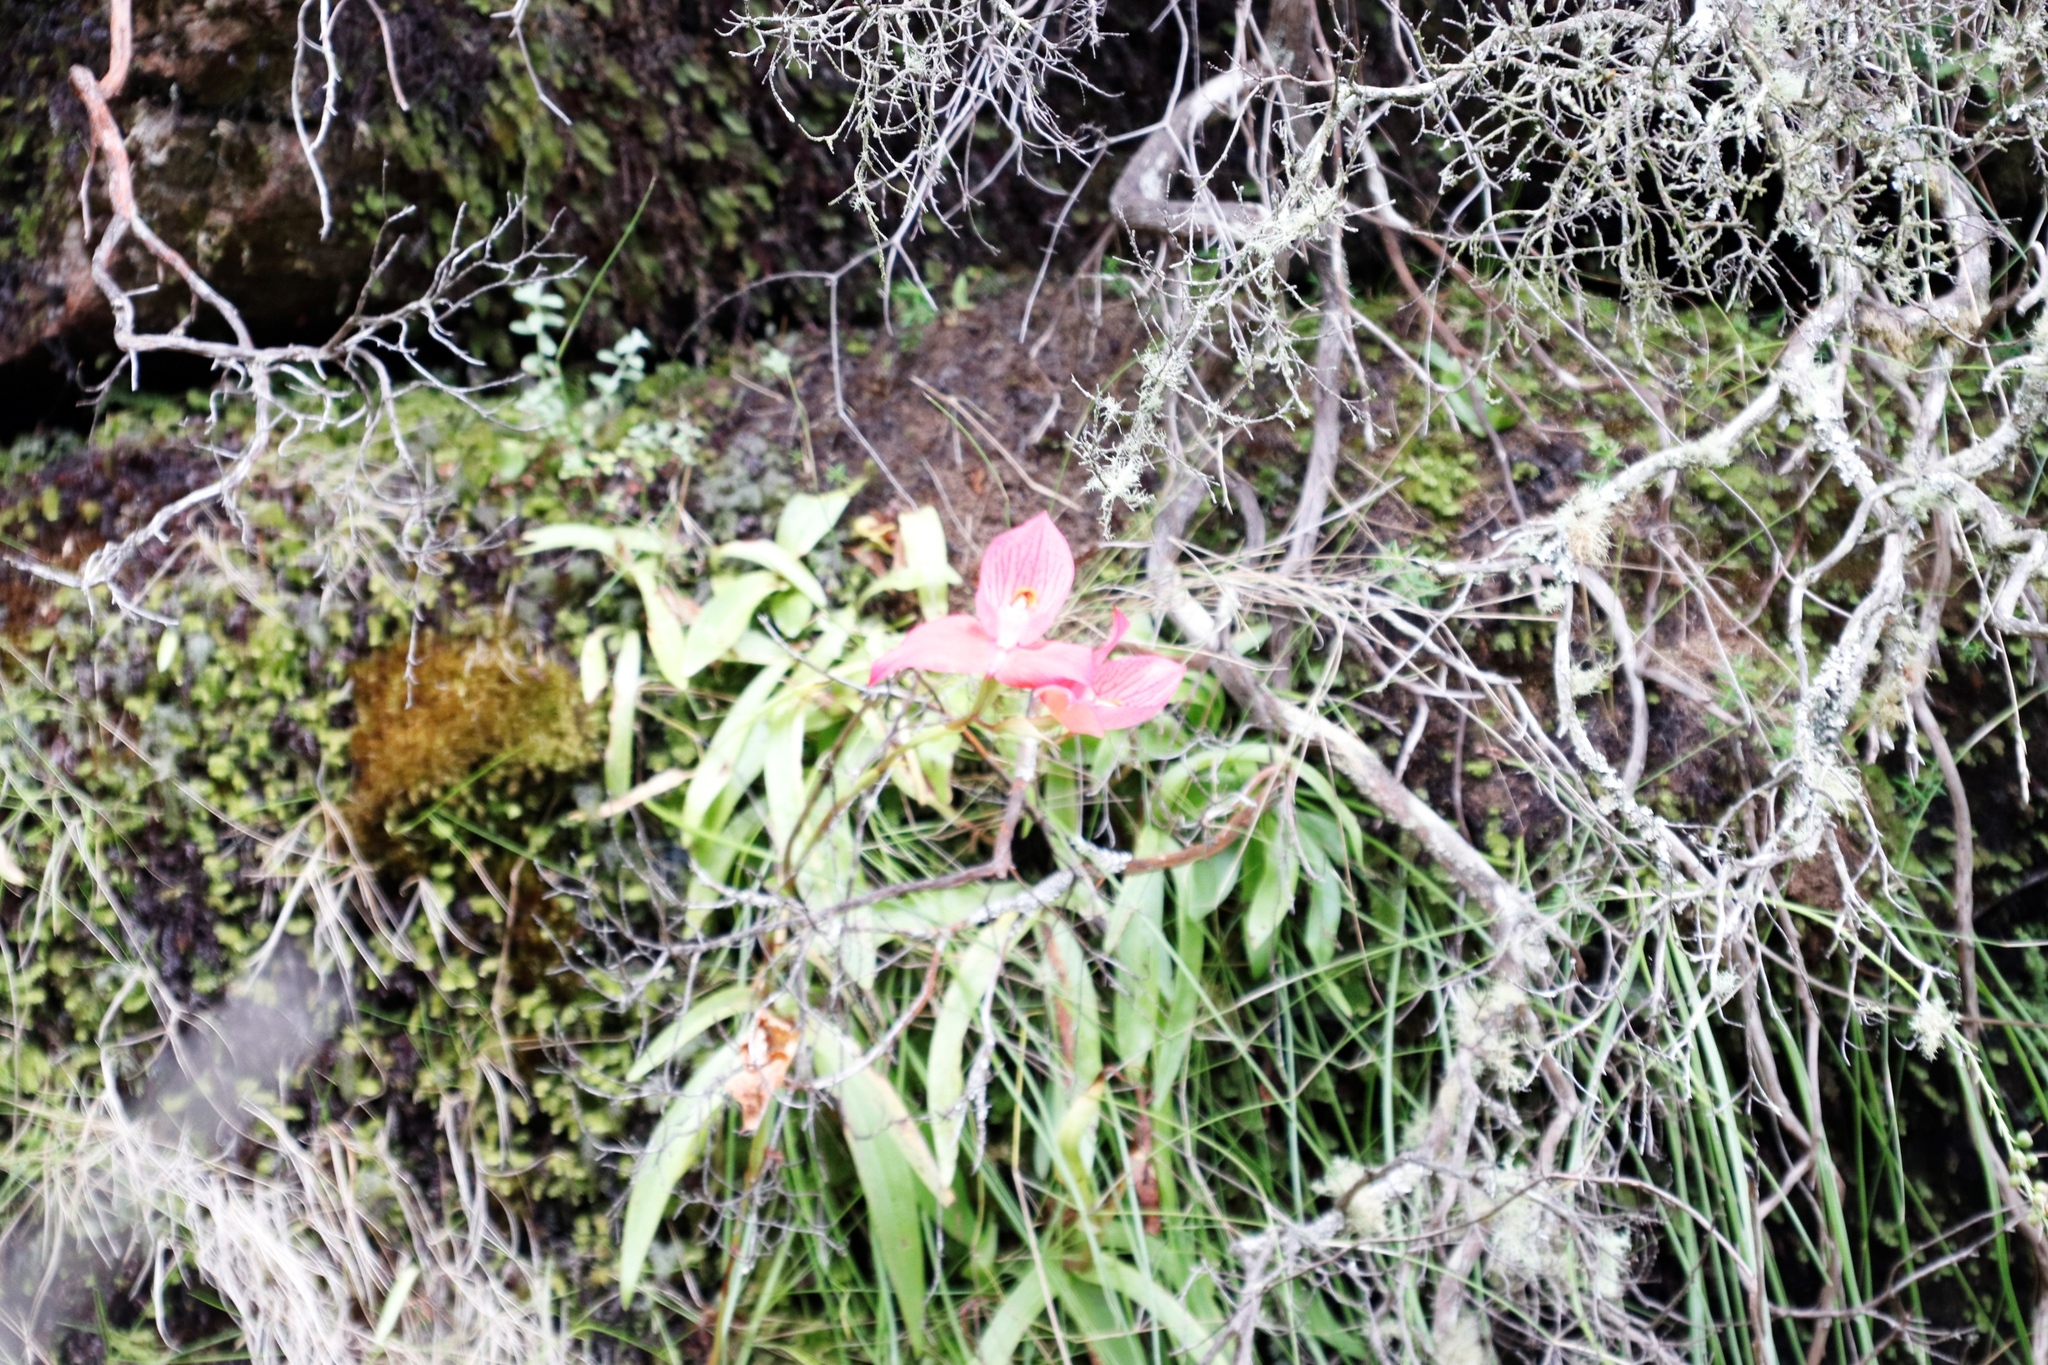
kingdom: Plantae
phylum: Tracheophyta
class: Liliopsida
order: Asparagales
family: Orchidaceae
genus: Disa
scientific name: Disa uniflora
